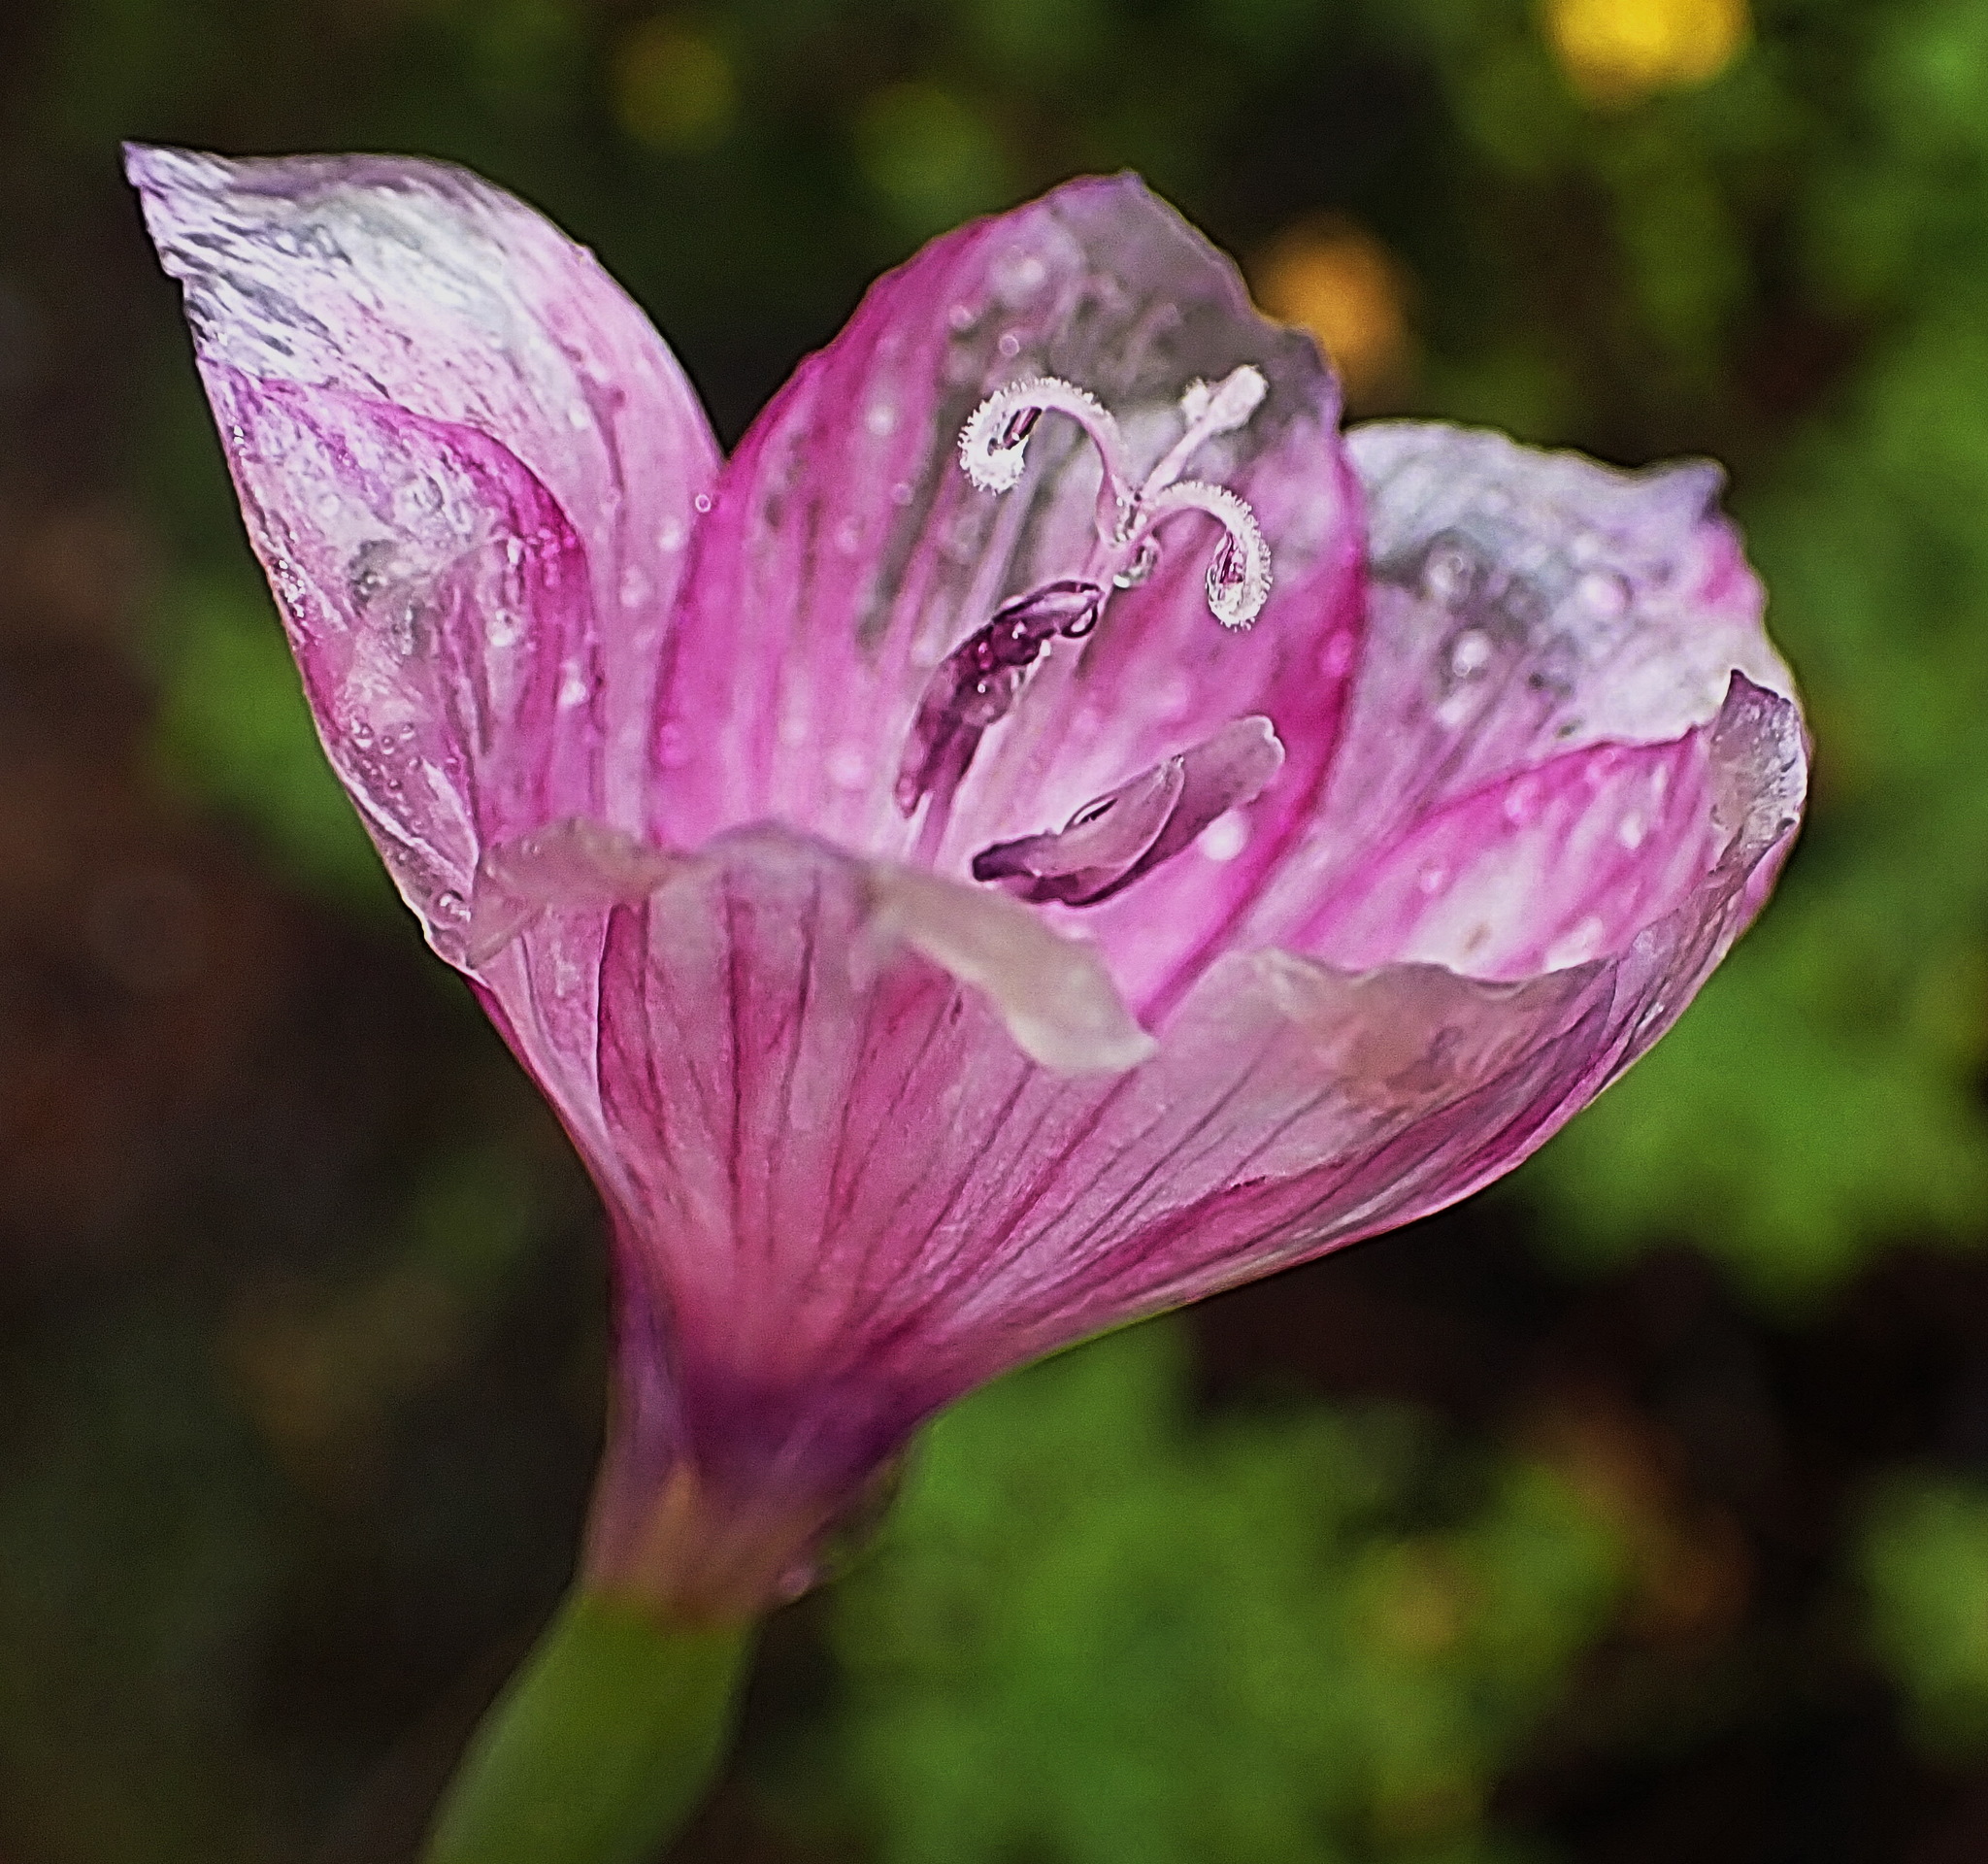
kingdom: Plantae
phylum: Tracheophyta
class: Liliopsida
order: Asparagales
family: Iridaceae
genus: Geissorhiza
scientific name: Geissorhiza outeniquensis
